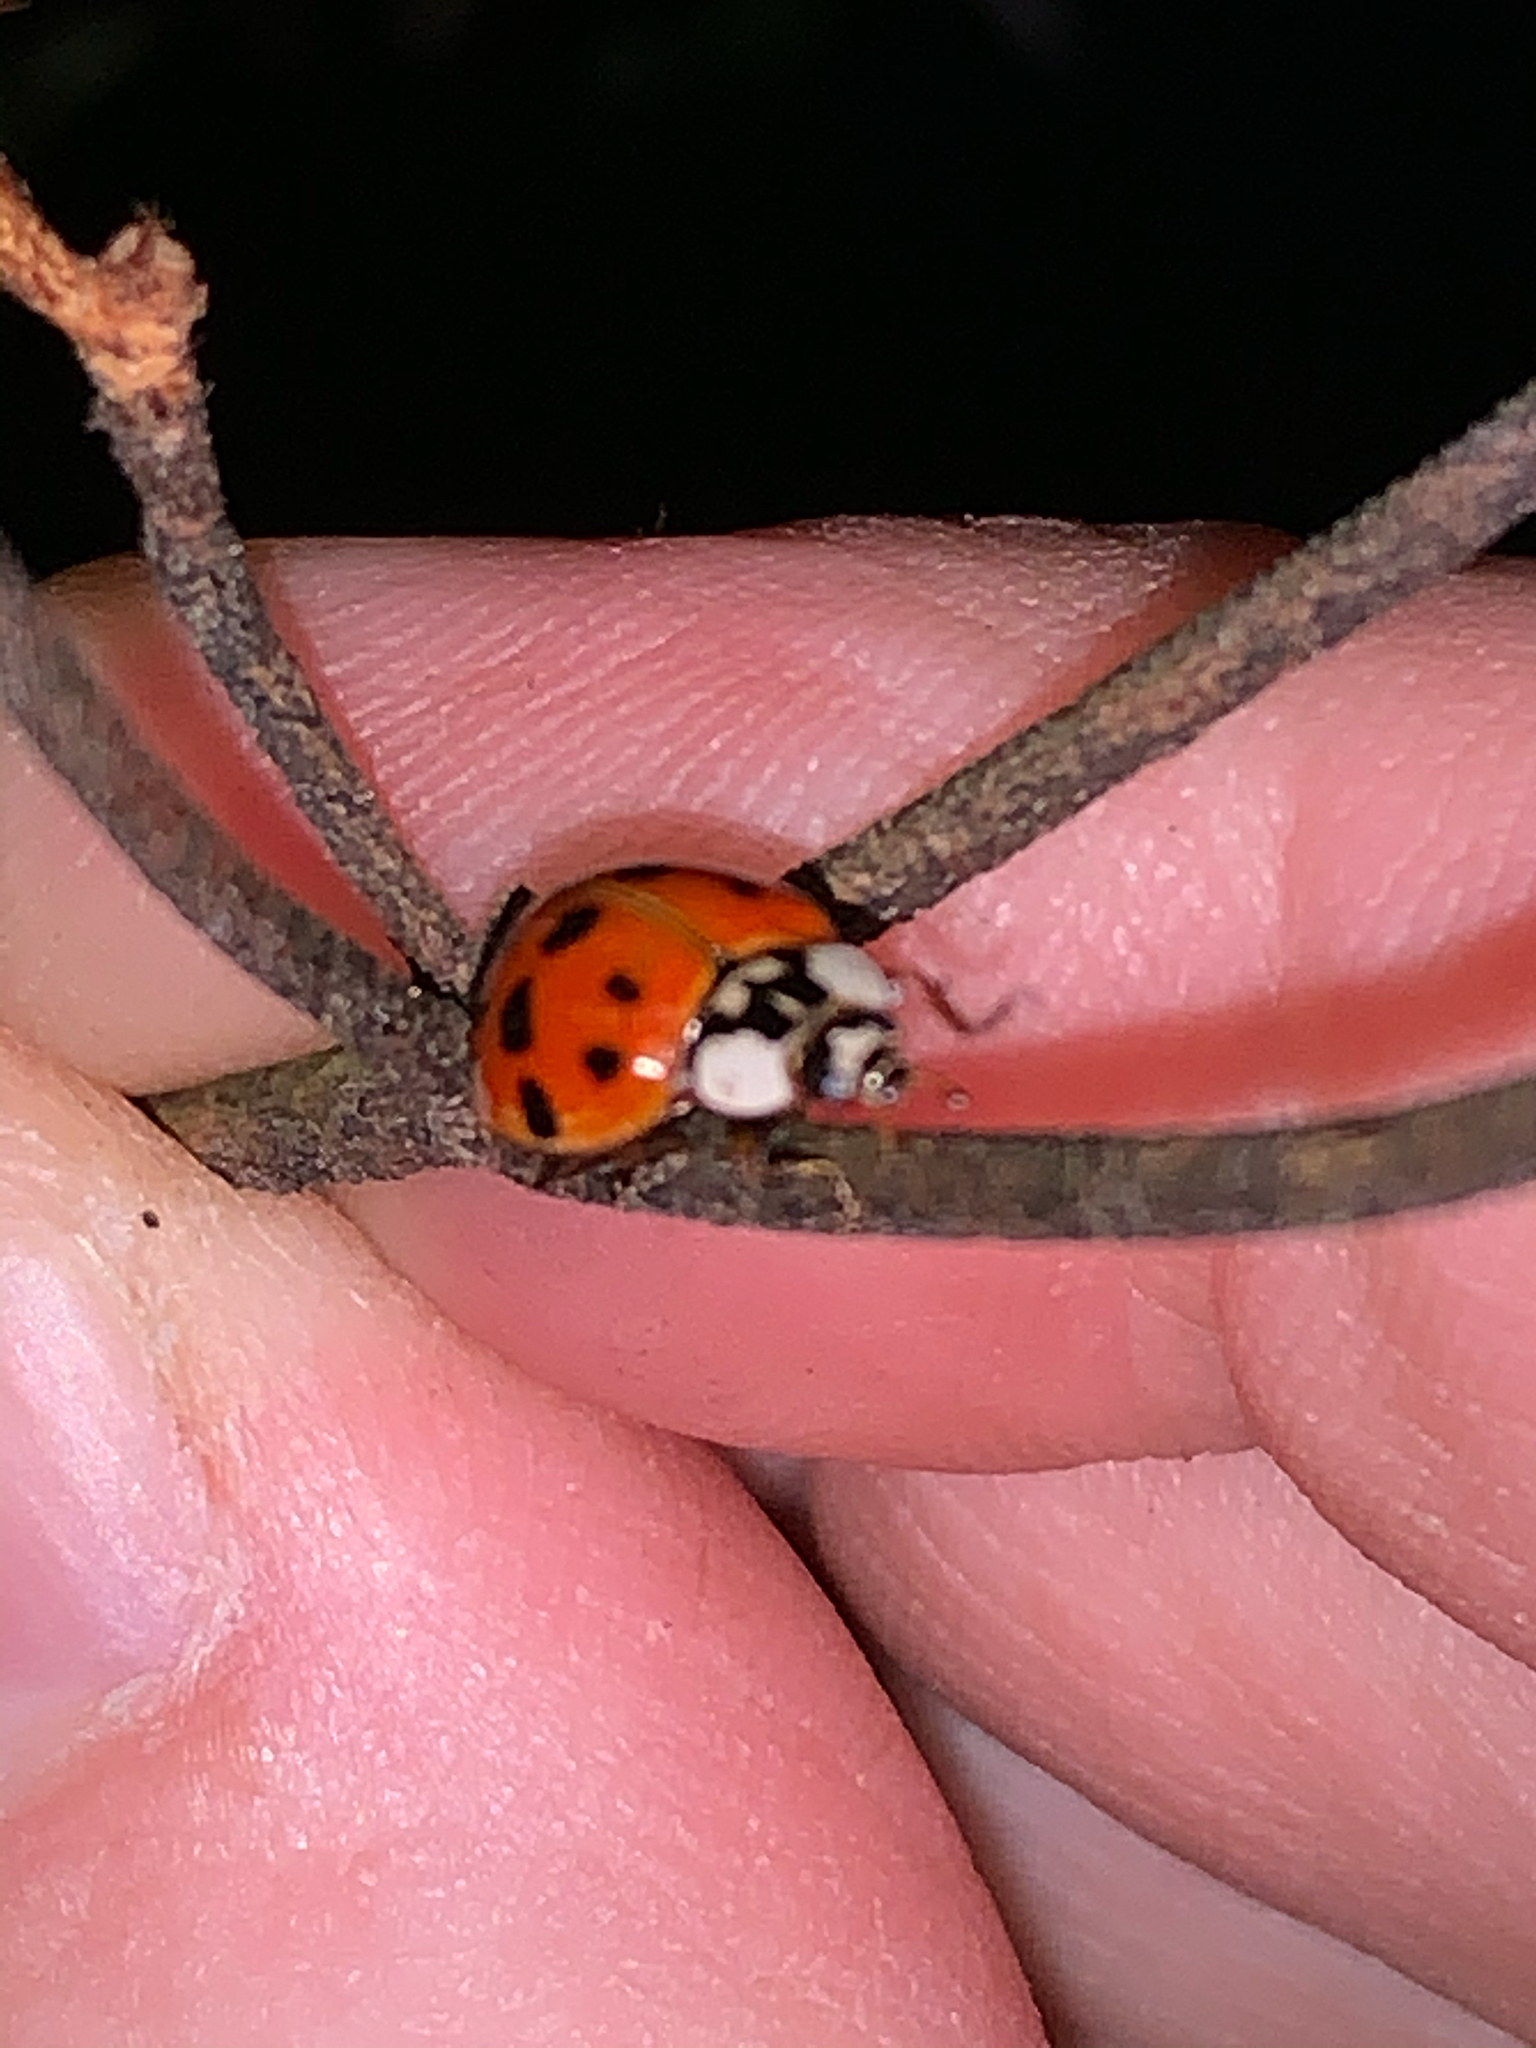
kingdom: Animalia
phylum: Arthropoda
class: Insecta
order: Coleoptera
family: Coccinellidae
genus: Harmonia
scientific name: Harmonia axyridis
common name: Harlequin ladybird
